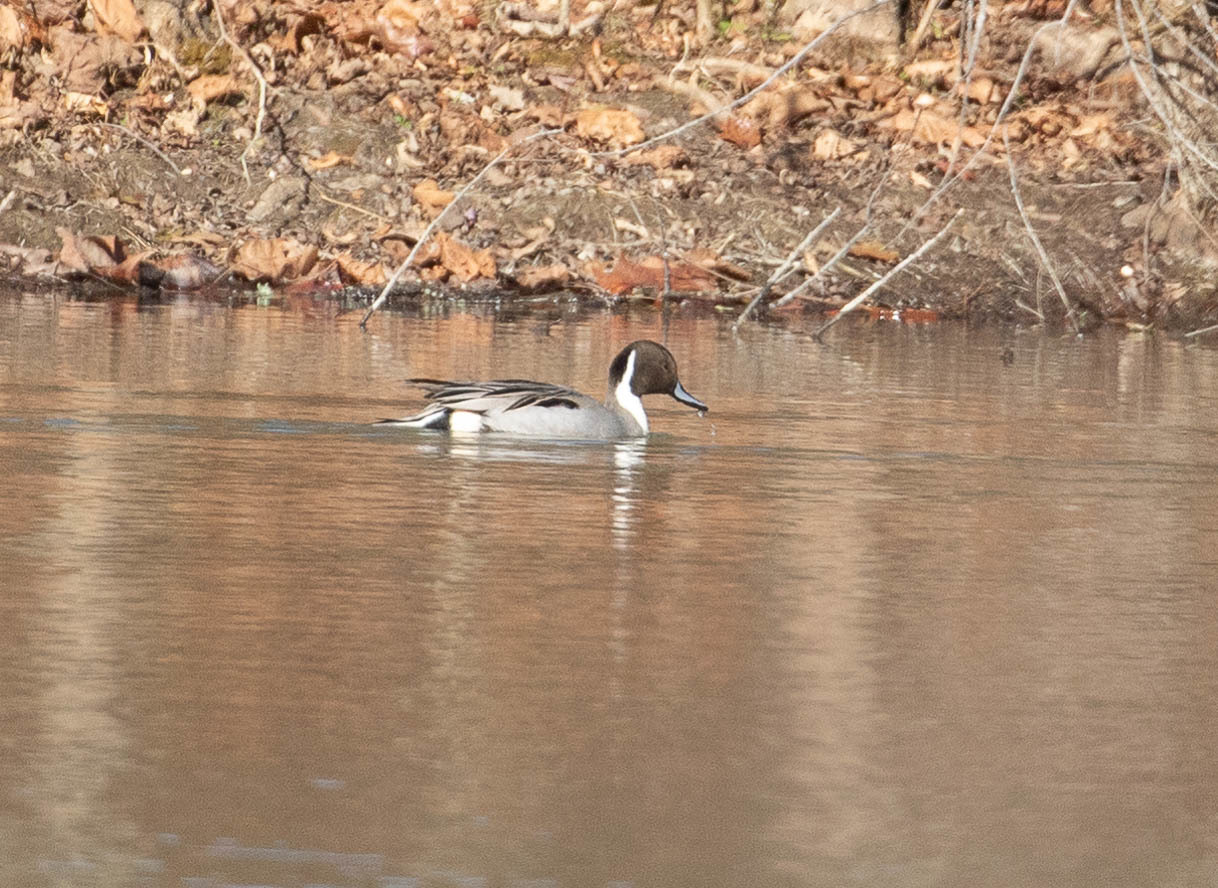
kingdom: Animalia
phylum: Chordata
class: Aves
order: Anseriformes
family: Anatidae
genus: Anas
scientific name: Anas acuta
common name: Northern pintail
